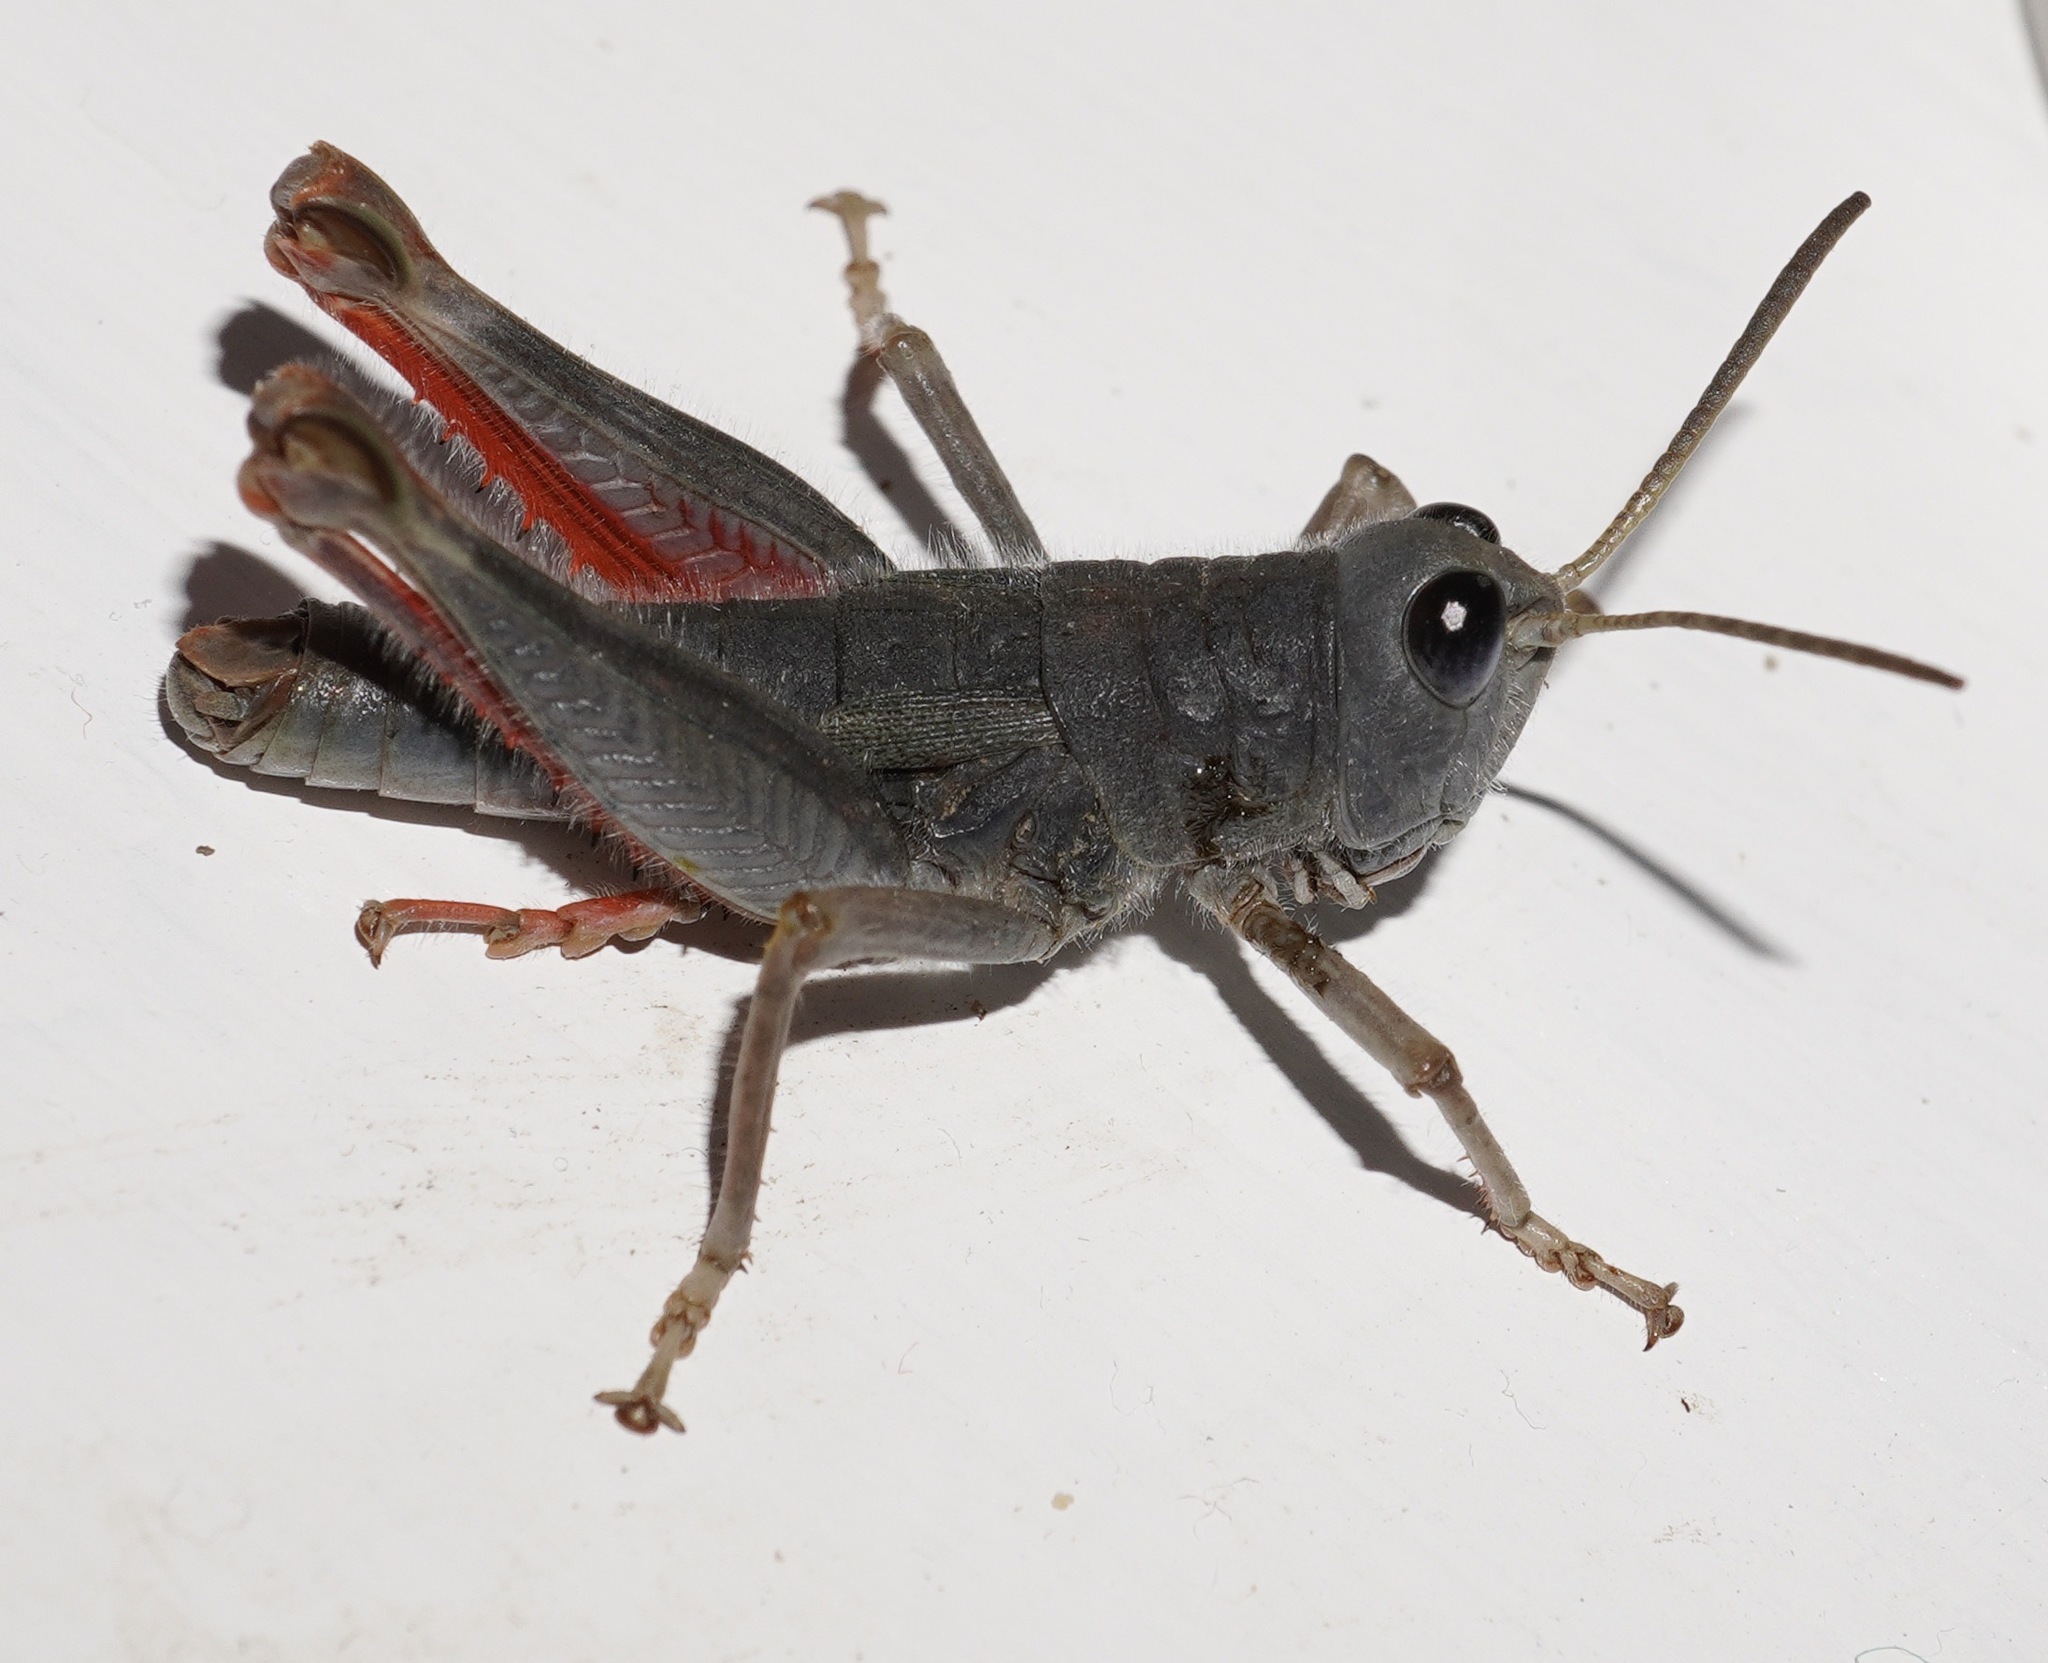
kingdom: Animalia
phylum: Arthropoda
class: Insecta
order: Orthoptera
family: Acrididae
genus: Sigaus
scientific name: Sigaus villosus
